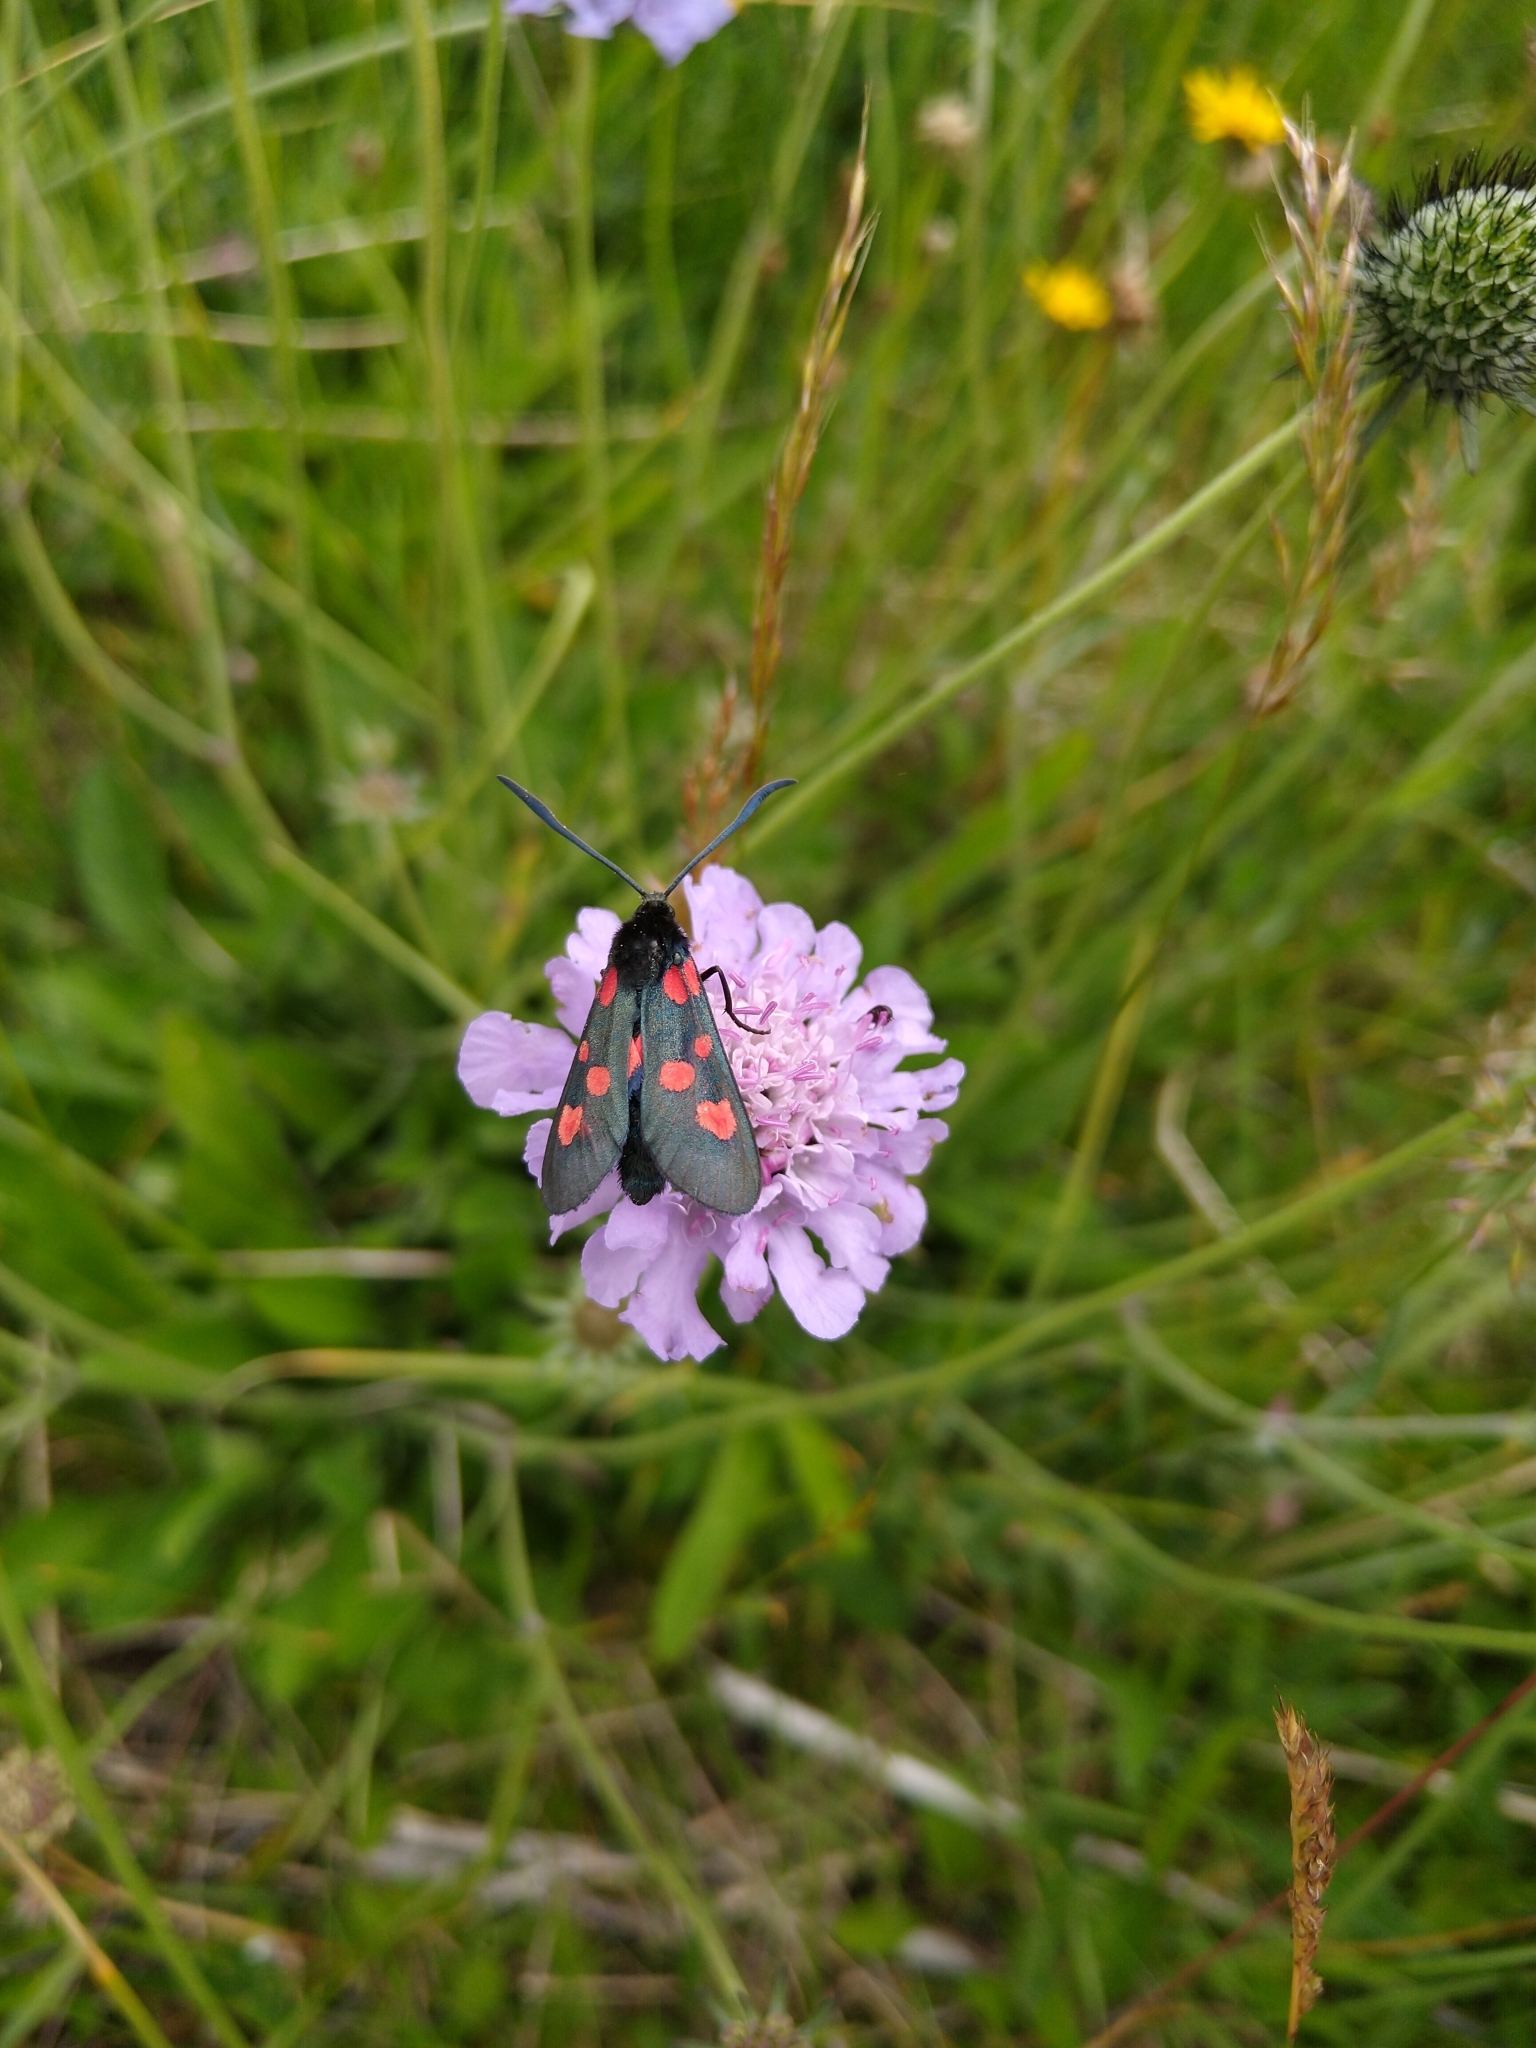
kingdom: Animalia
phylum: Arthropoda
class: Insecta
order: Lepidoptera
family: Zygaenidae
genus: Zygaena
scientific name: Zygaena lonicerae
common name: Narrow-bordered five-spot burnet
